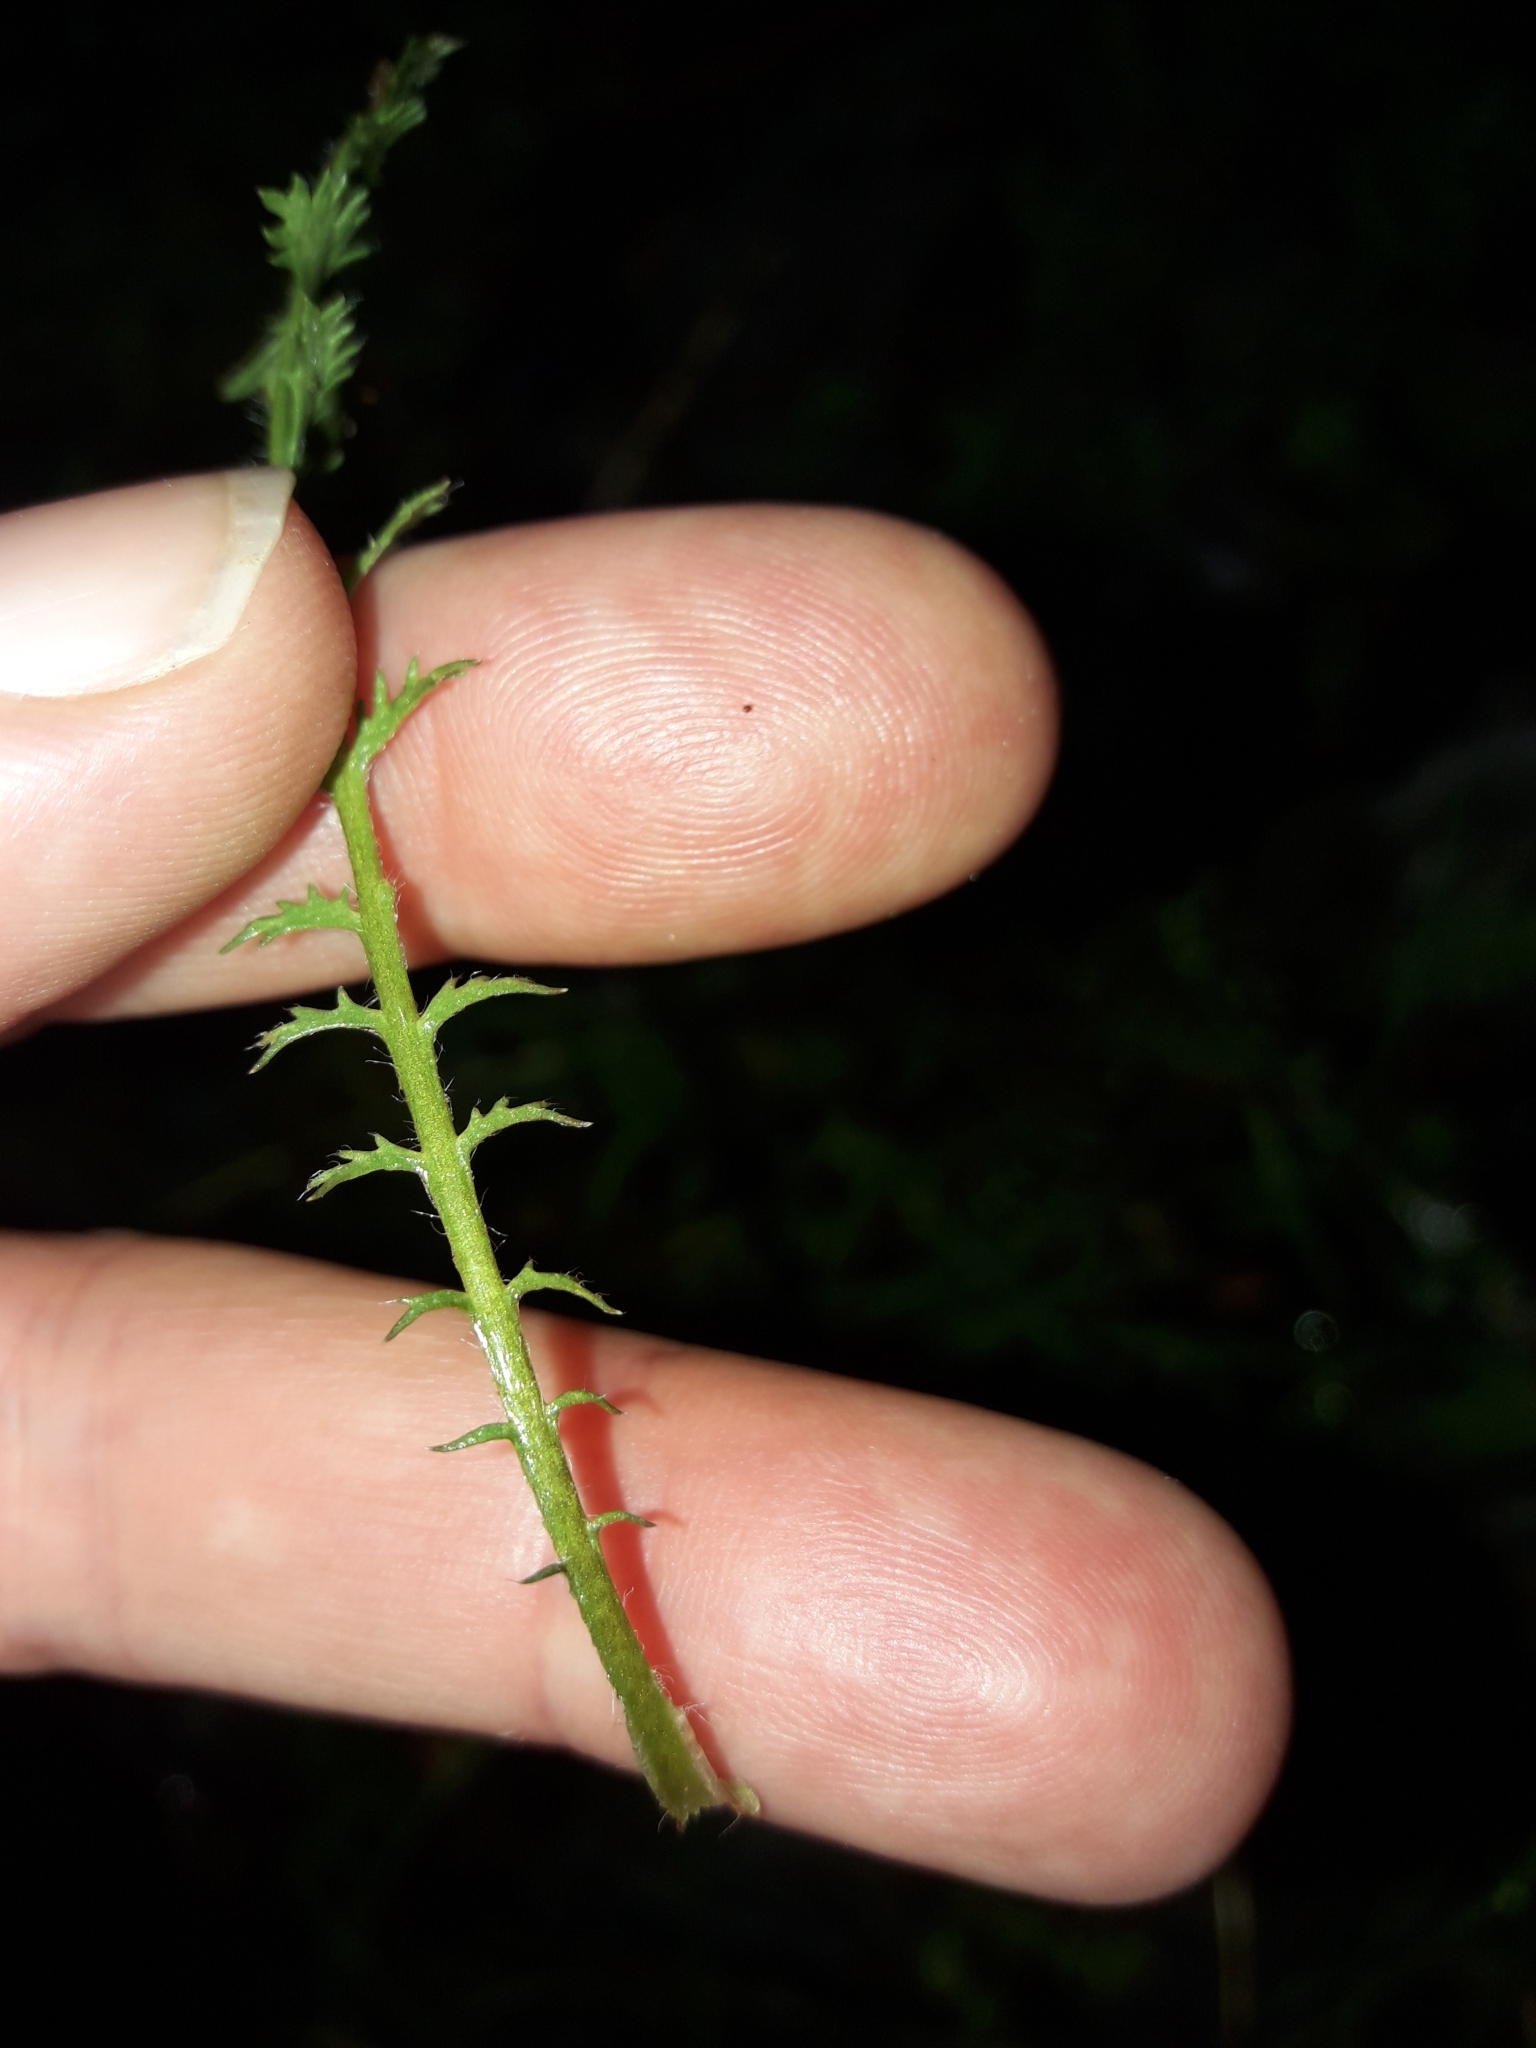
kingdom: Plantae
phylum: Tracheophyta
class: Magnoliopsida
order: Asterales
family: Asteraceae
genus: Leptinella
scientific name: Leptinella squalida
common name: New zealand brass-buttons
